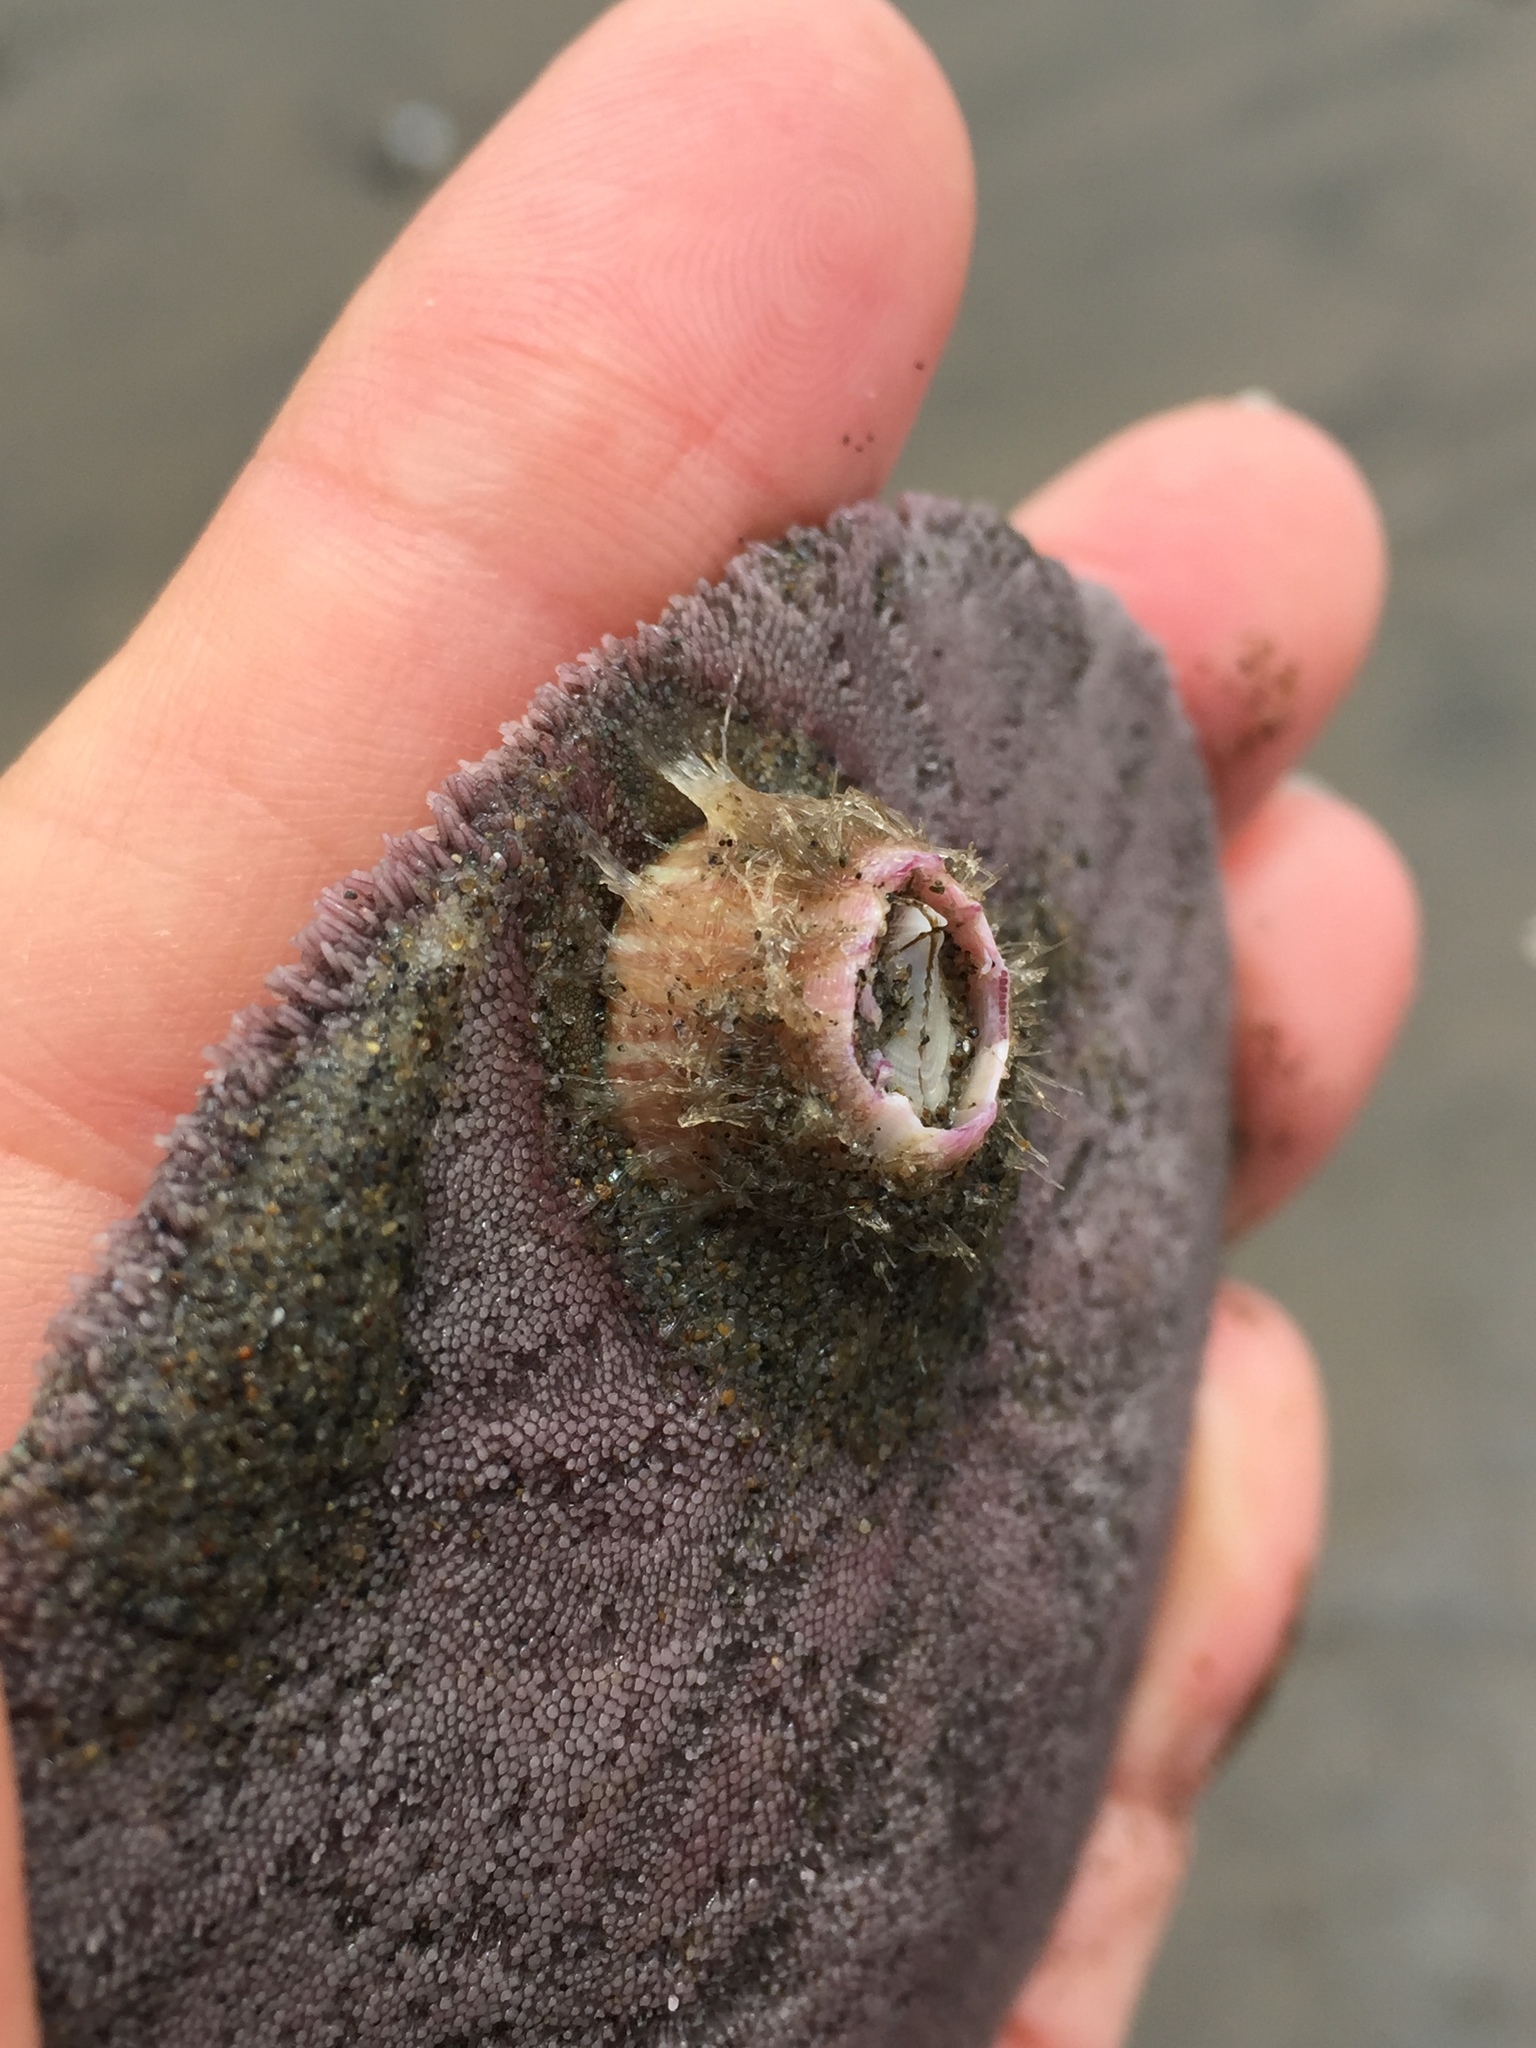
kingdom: Animalia
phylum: Arthropoda
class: Maxillopoda
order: Sessilia
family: Balanidae
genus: Paraconcavus
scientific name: Paraconcavus pacificus
